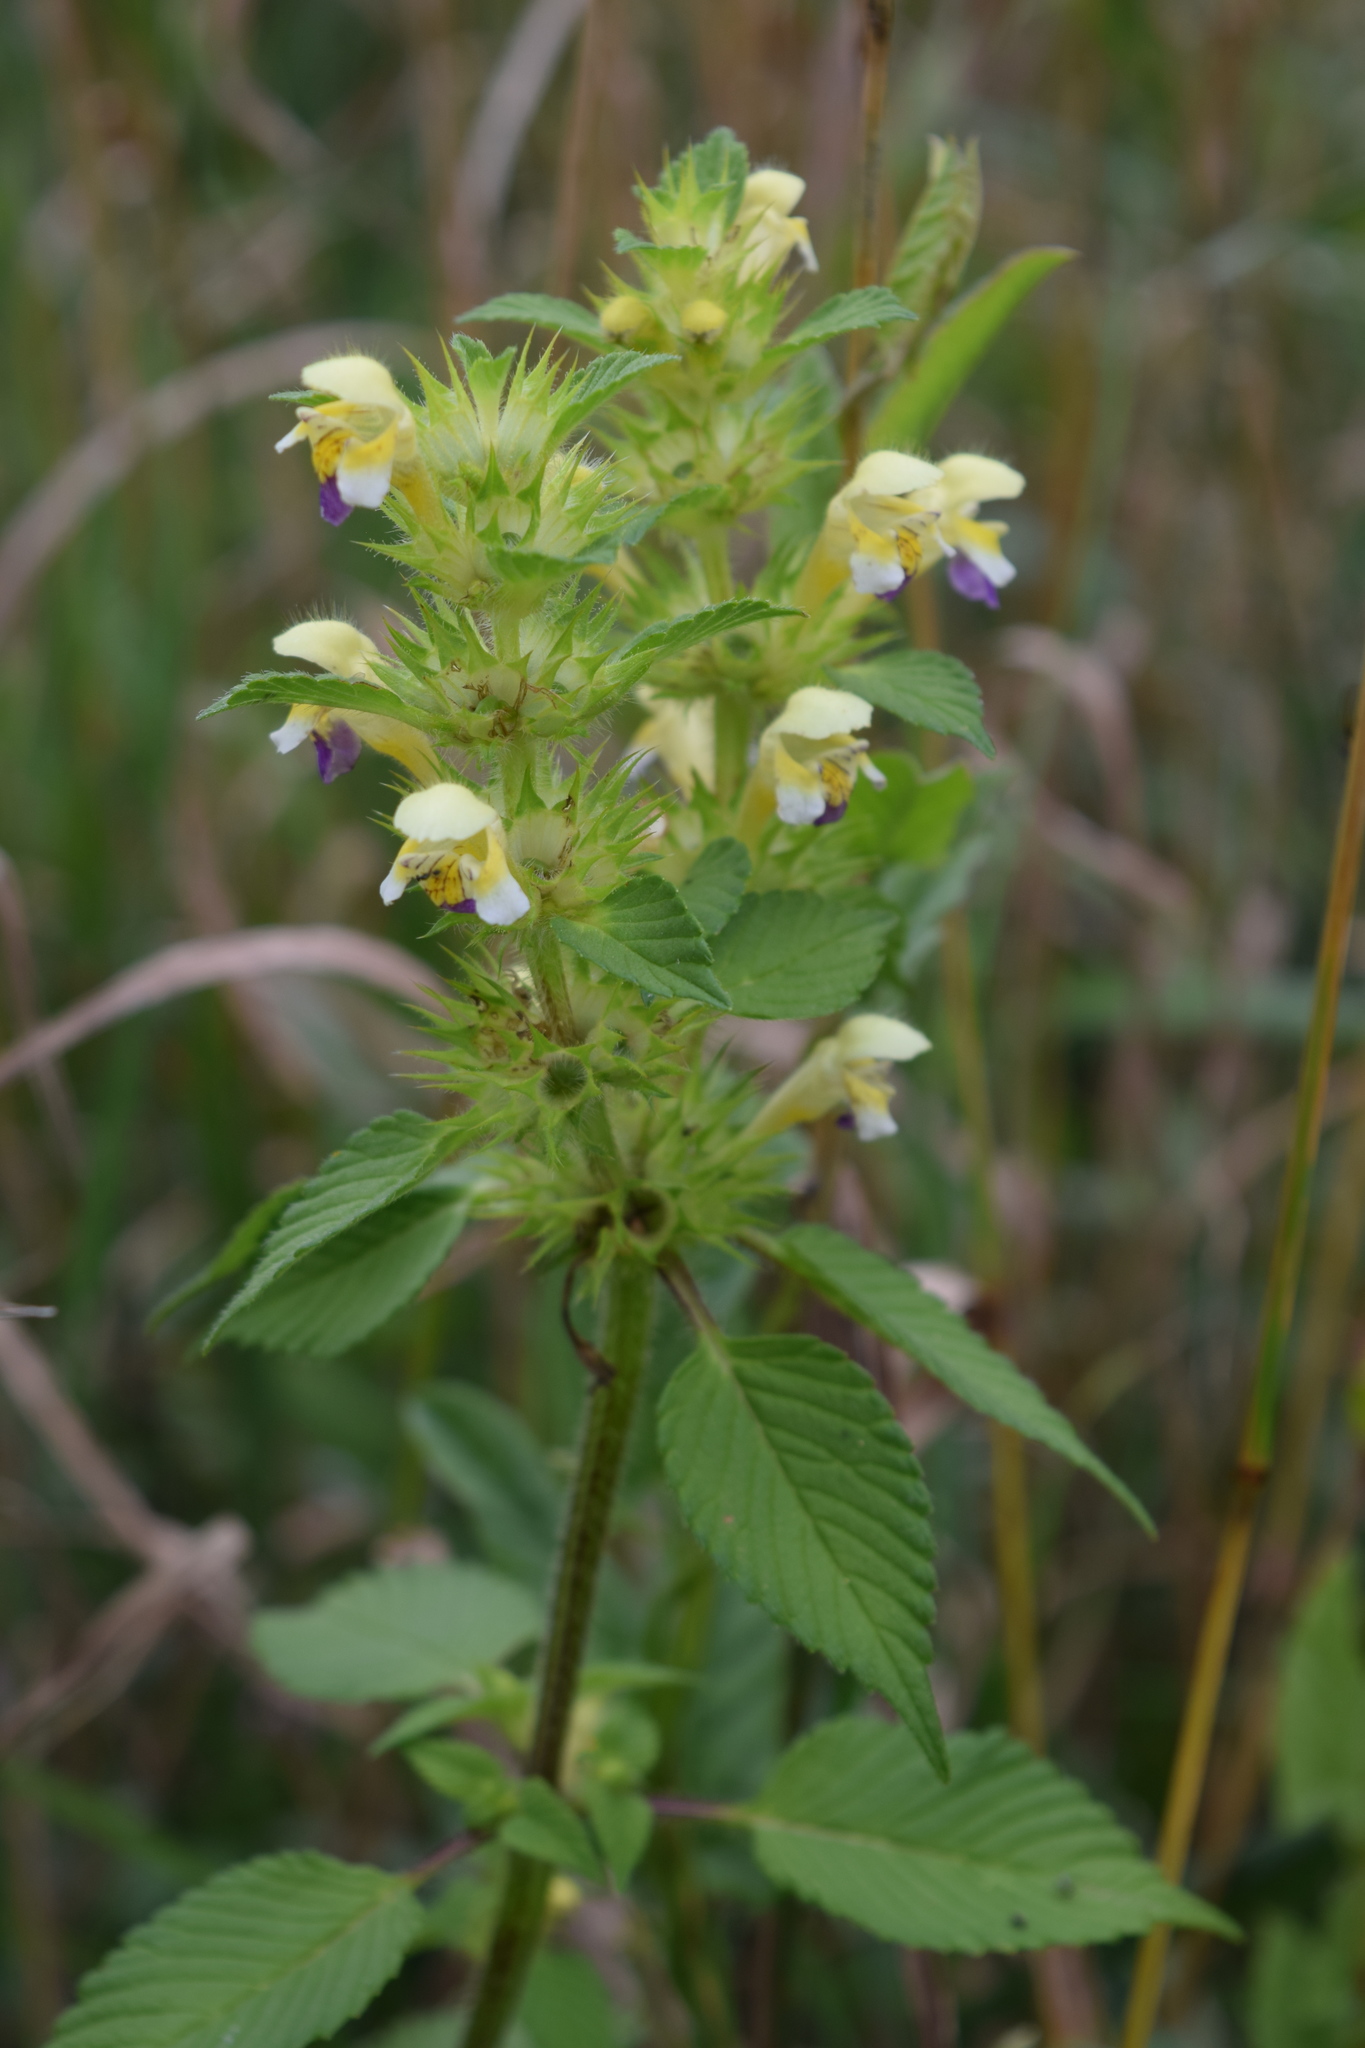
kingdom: Plantae
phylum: Tracheophyta
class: Magnoliopsida
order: Lamiales
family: Lamiaceae
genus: Galeopsis
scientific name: Galeopsis speciosa
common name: Large-flowered hemp-nettle
